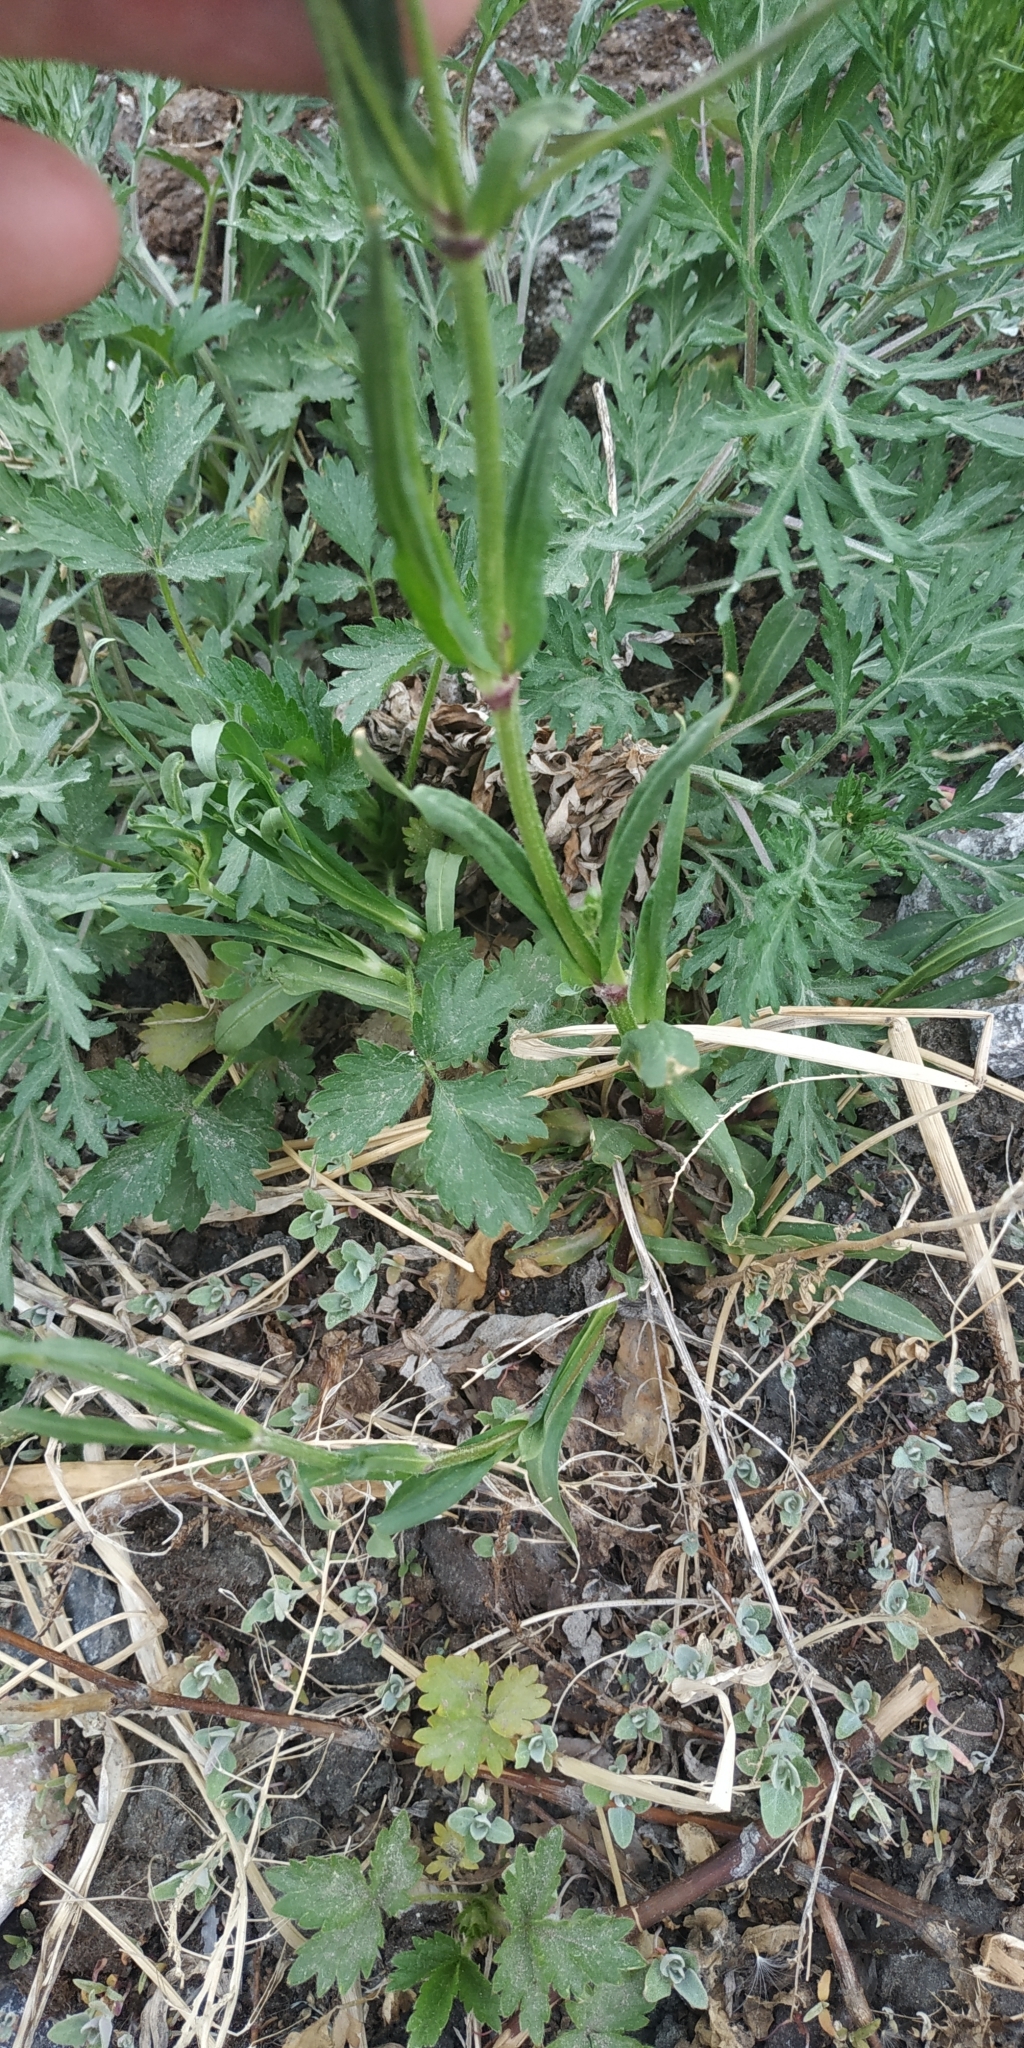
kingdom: Plantae
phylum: Tracheophyta
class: Magnoliopsida
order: Caryophyllales
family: Caryophyllaceae
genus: Silene
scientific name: Silene flos-cuculi
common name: Ragged-robin
